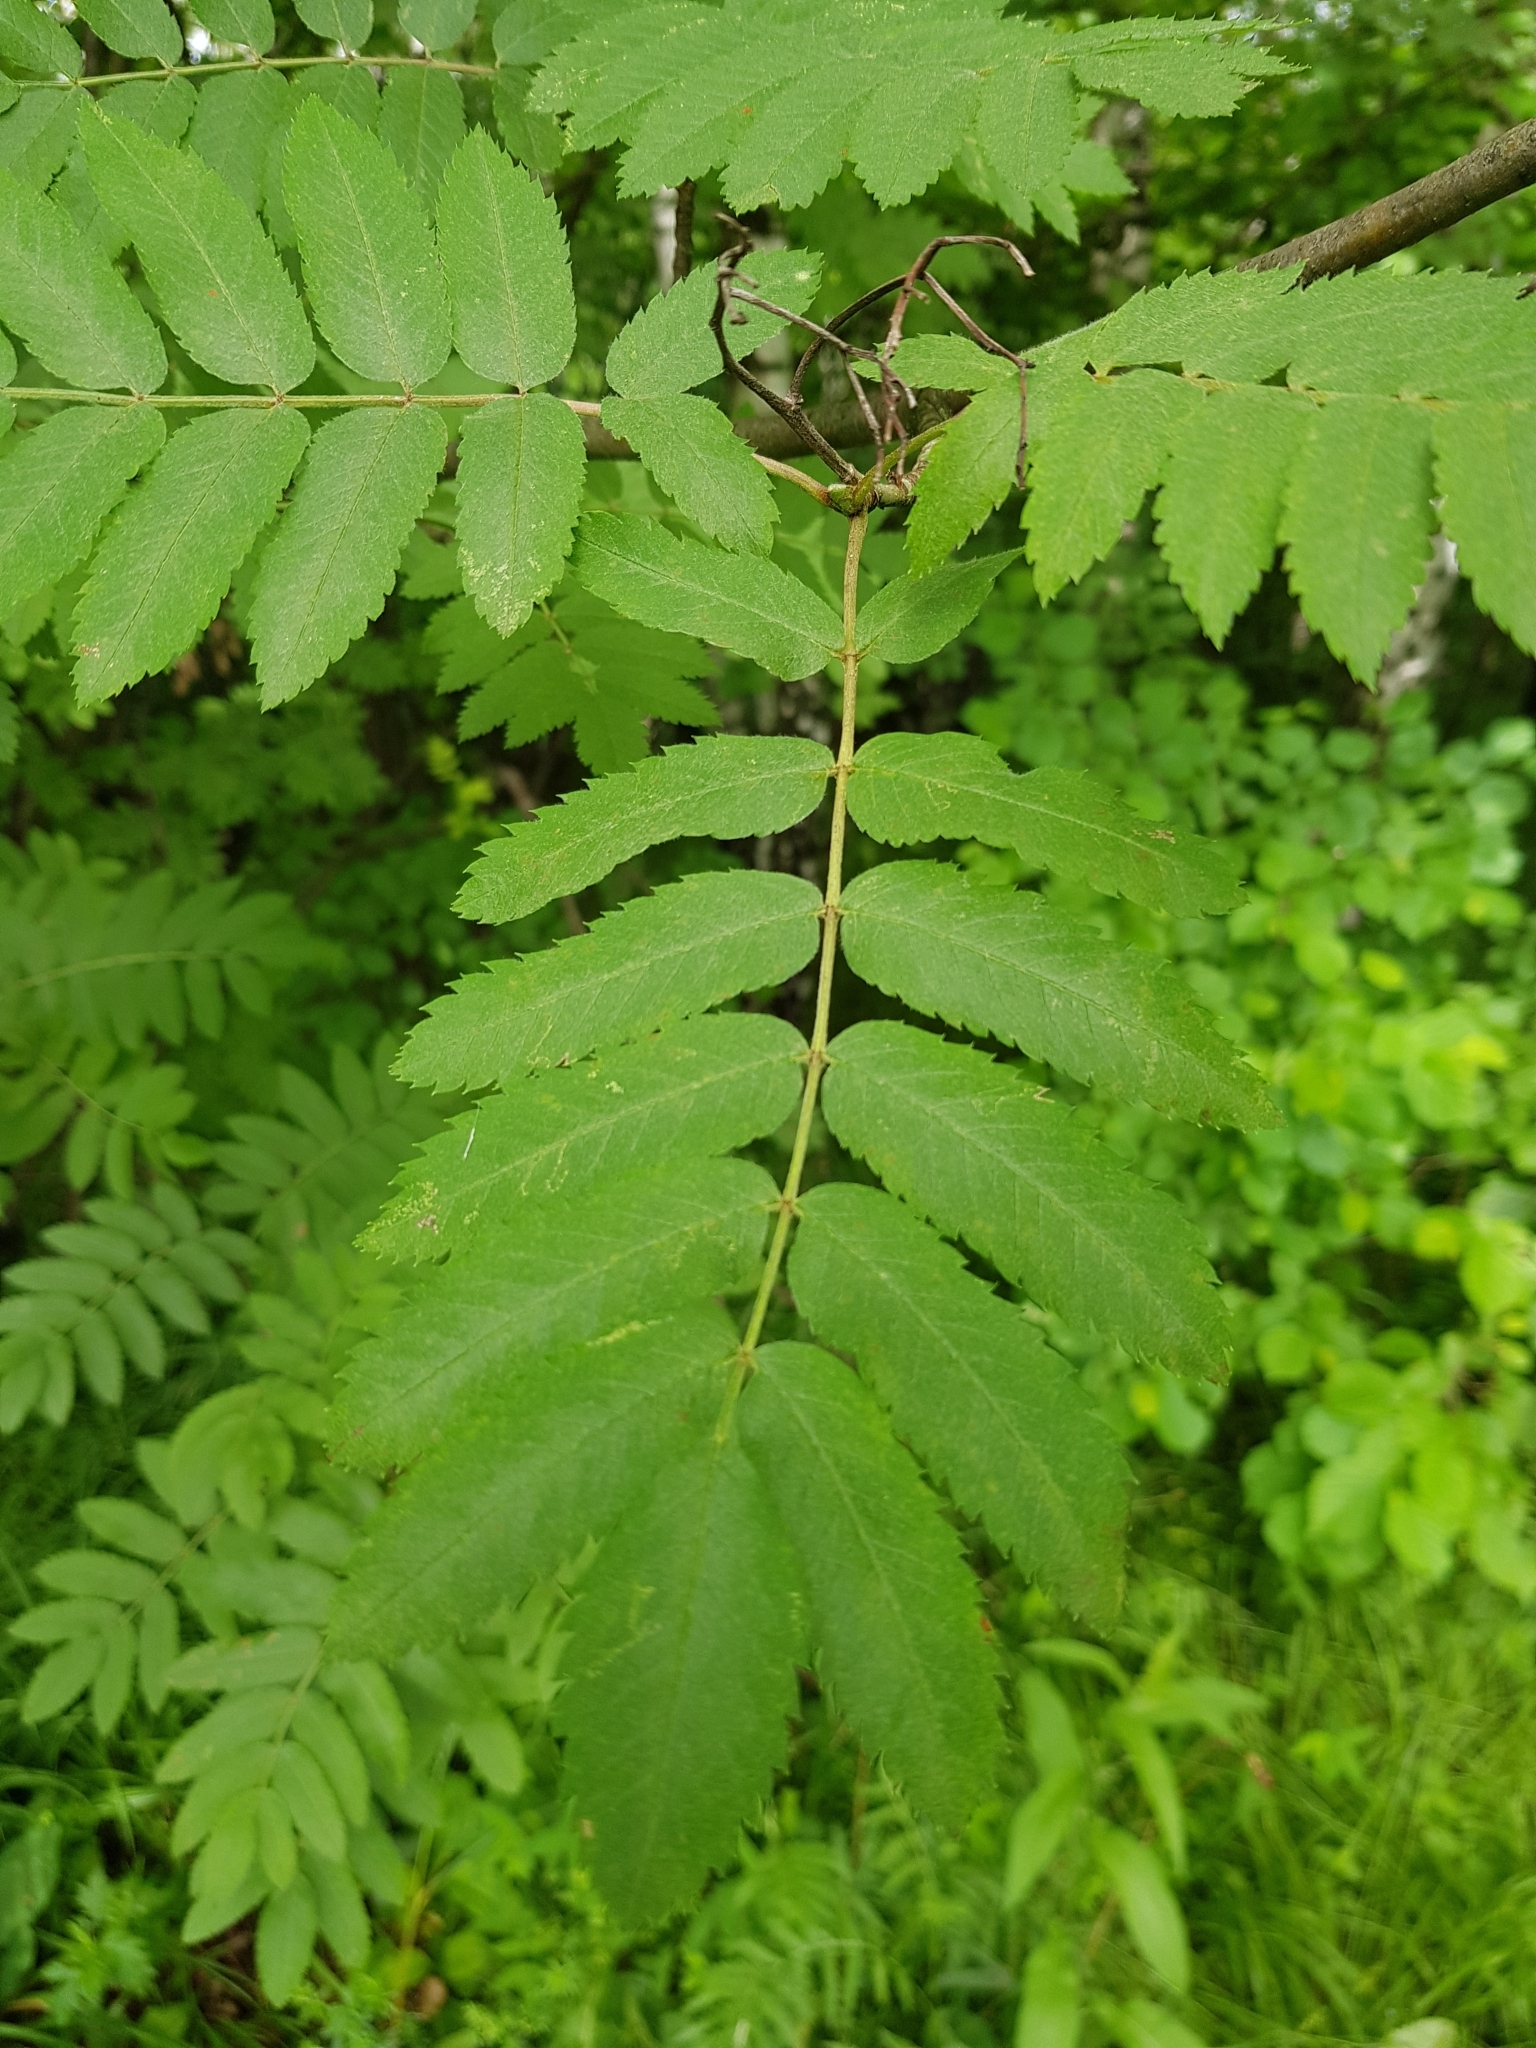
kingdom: Plantae
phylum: Tracheophyta
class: Magnoliopsida
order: Rosales
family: Rosaceae
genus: Sorbus
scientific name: Sorbus aucuparia
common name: Rowan
